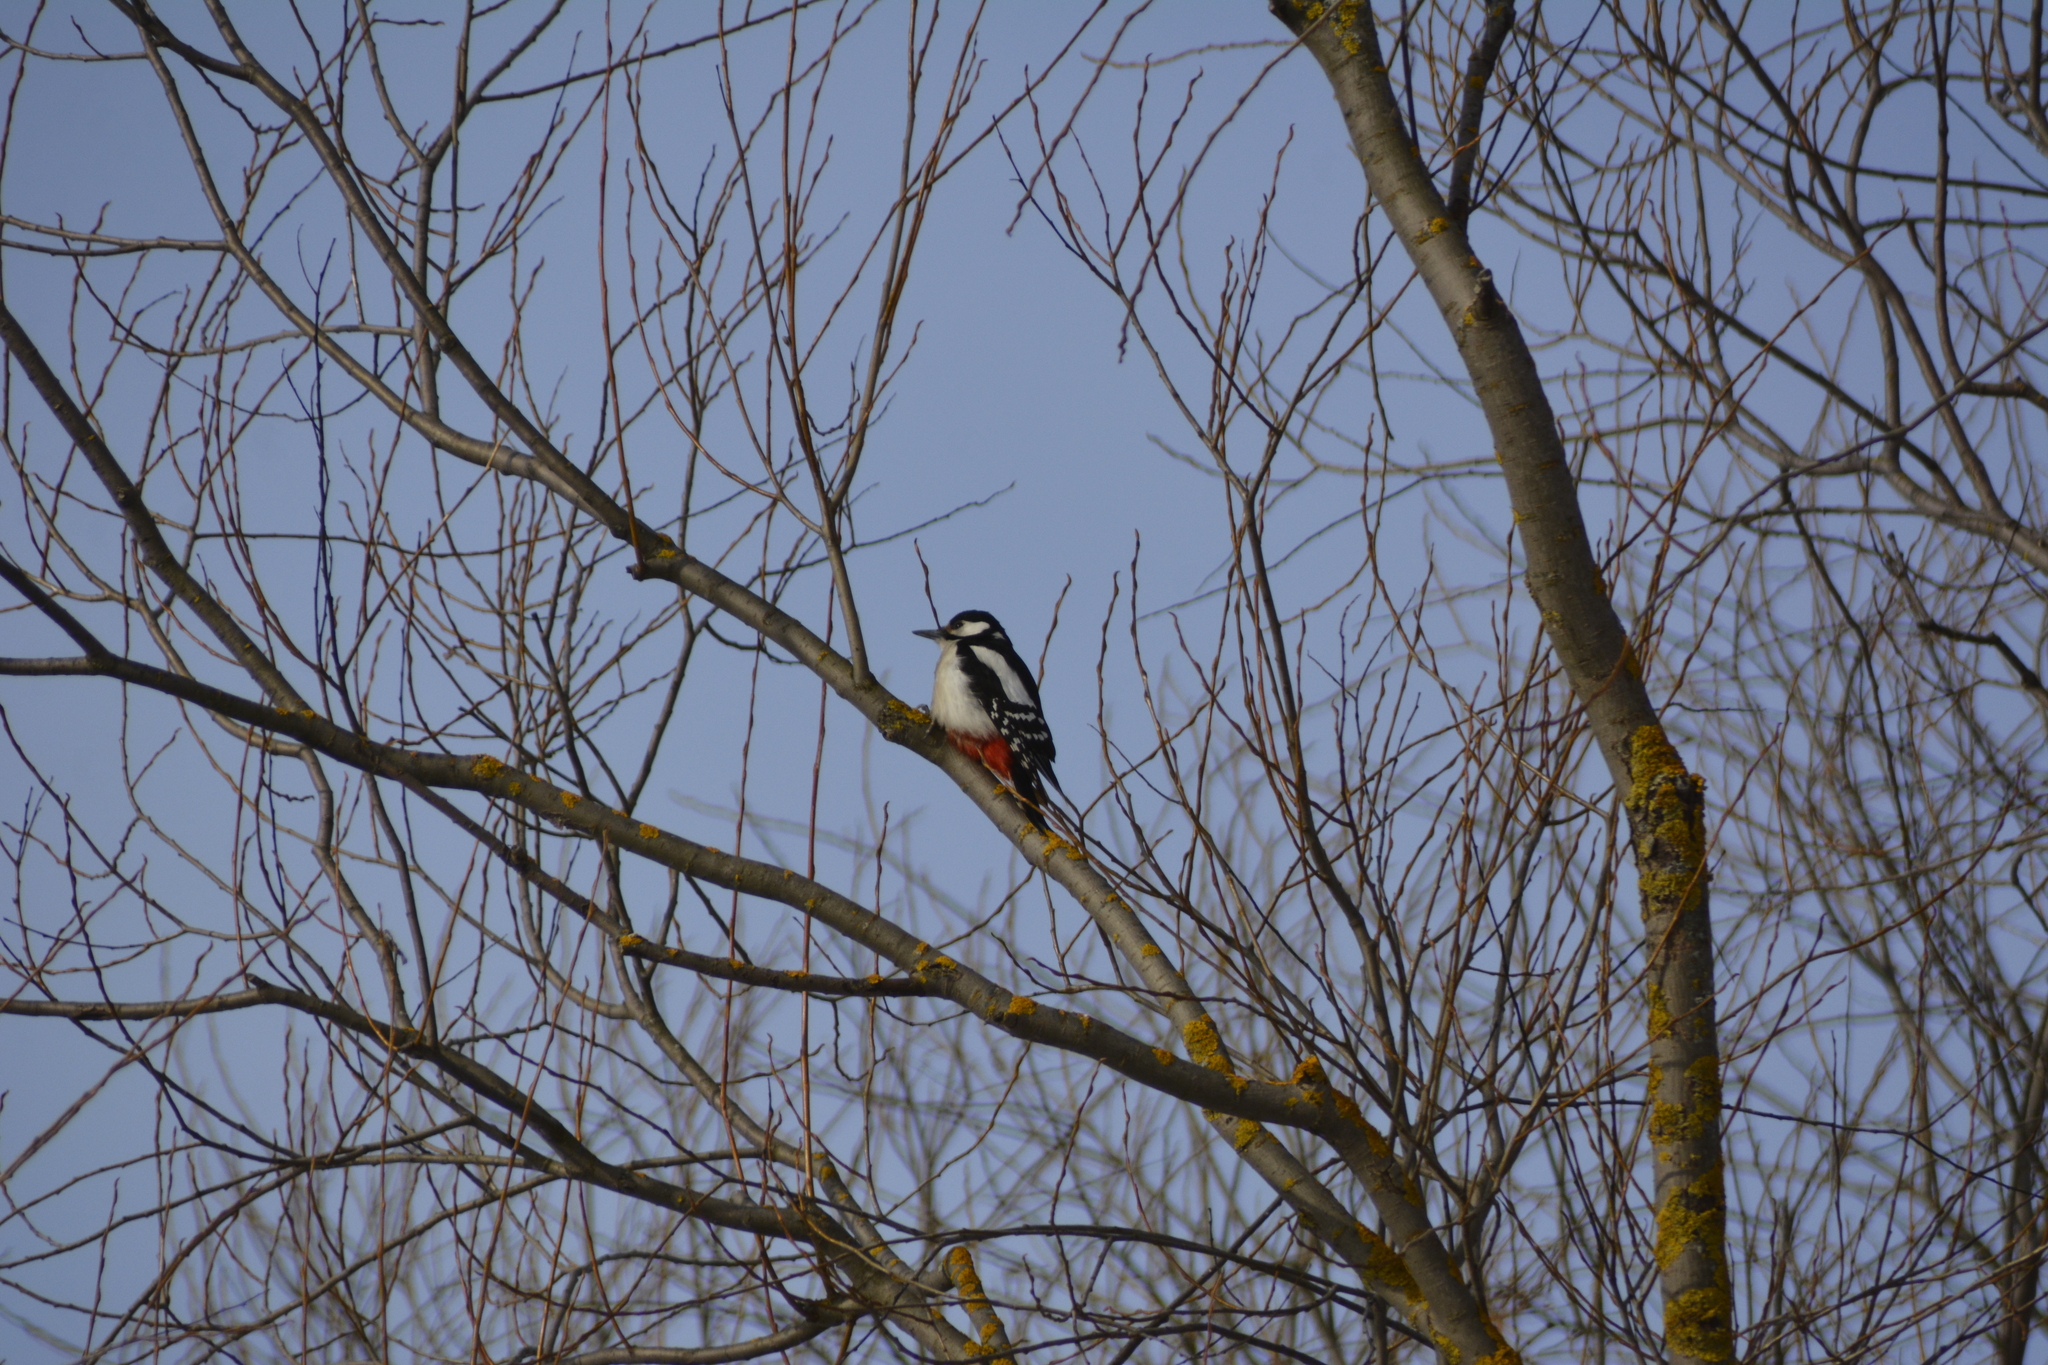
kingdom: Animalia
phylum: Chordata
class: Aves
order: Piciformes
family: Picidae
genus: Dendrocopos
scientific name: Dendrocopos major
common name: Great spotted woodpecker
